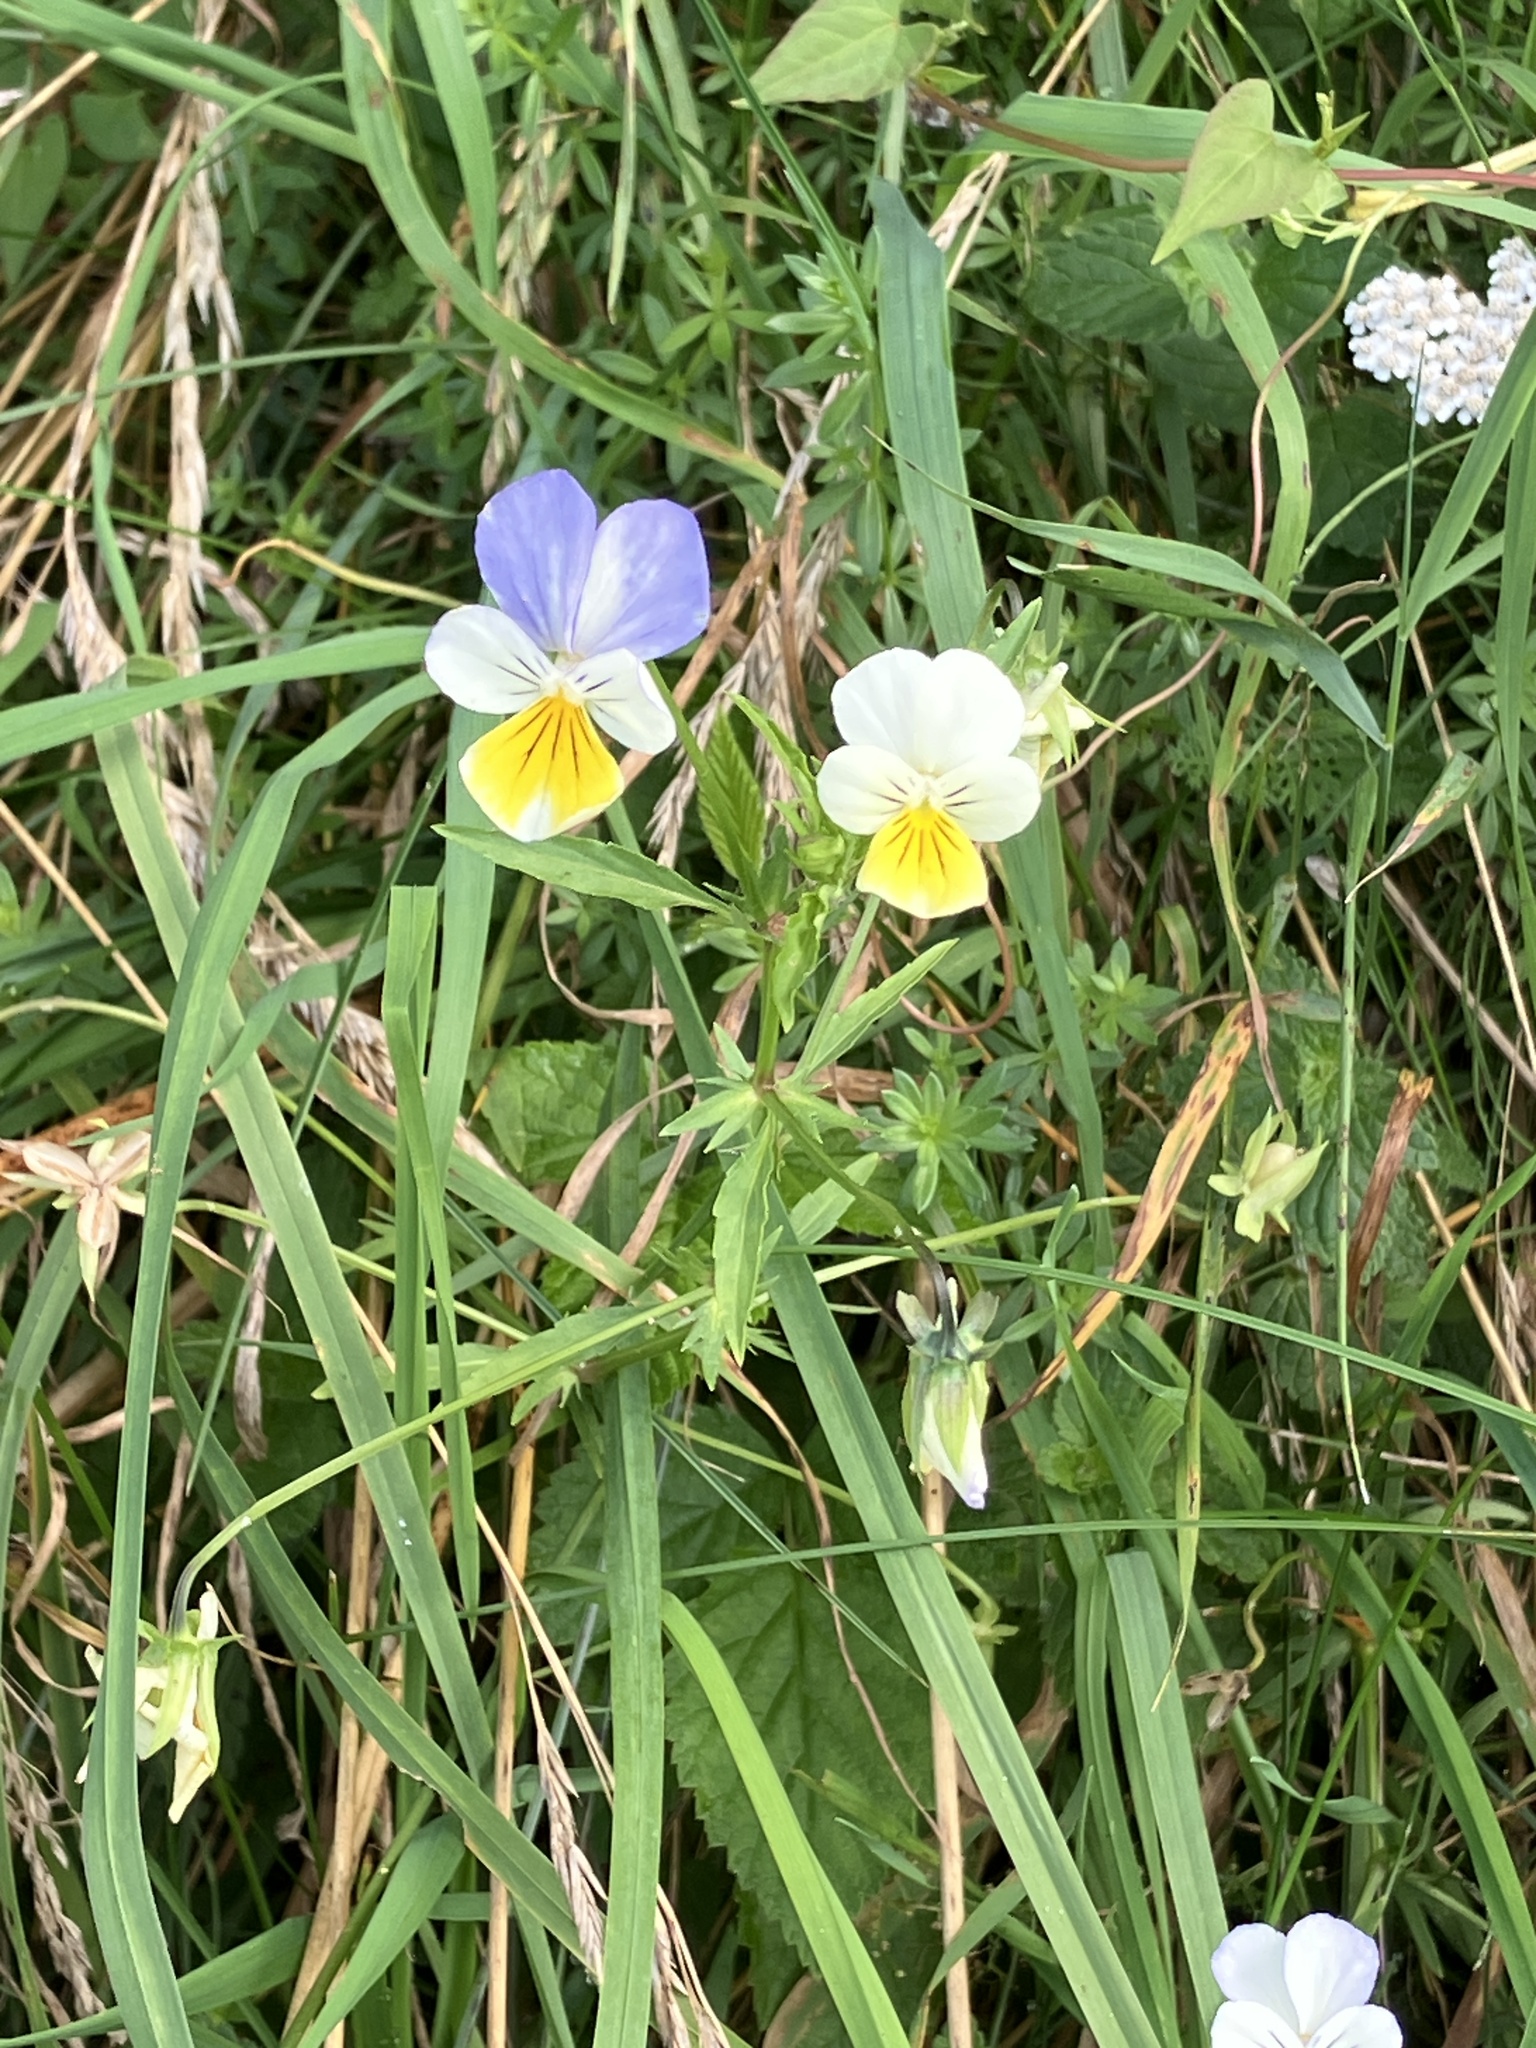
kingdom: Plantae
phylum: Tracheophyta
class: Magnoliopsida
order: Malpighiales
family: Violaceae
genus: Viola
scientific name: Viola tricolor
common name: Pansy
